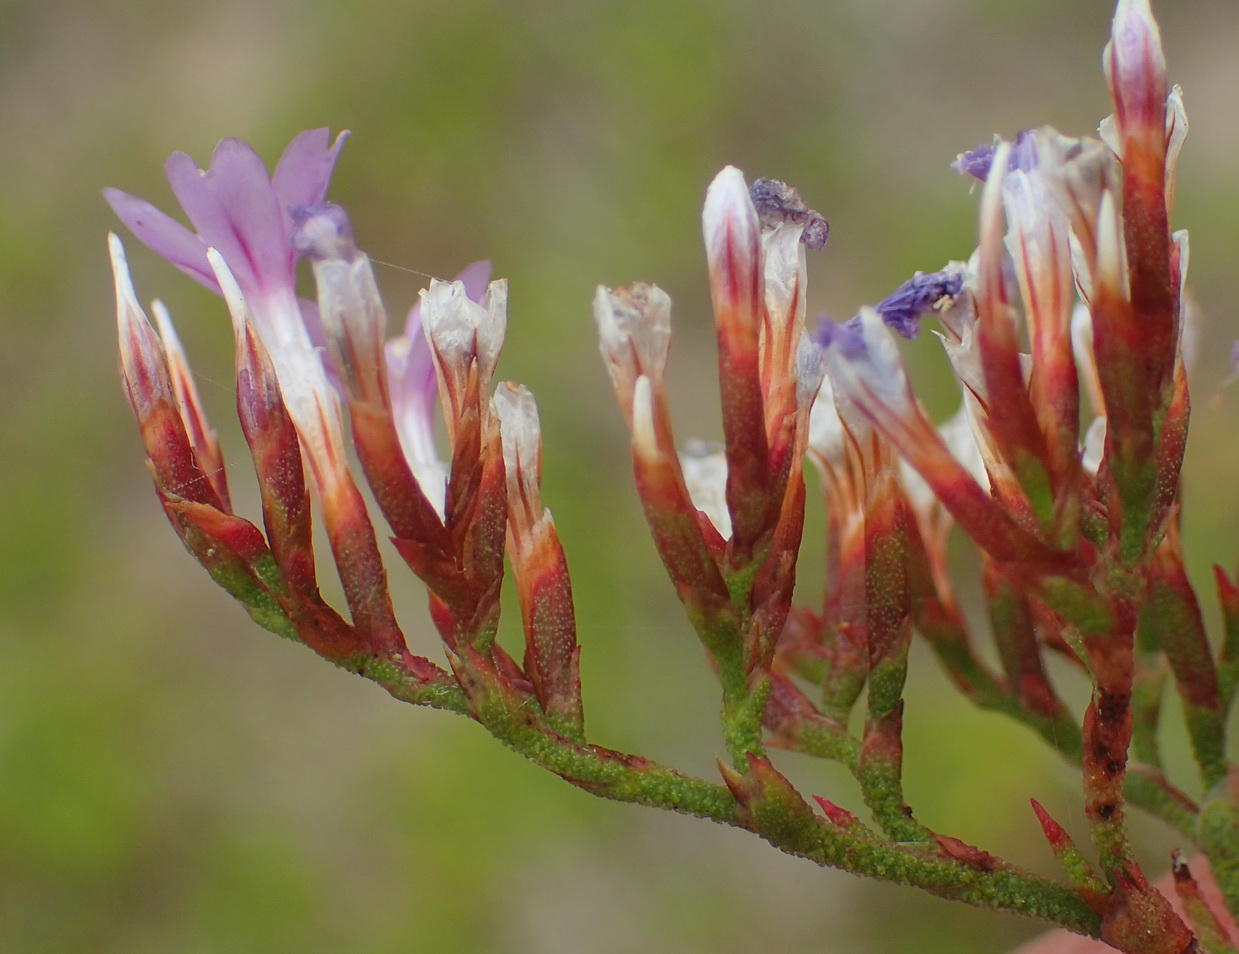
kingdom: Plantae
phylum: Tracheophyta
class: Magnoliopsida
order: Caryophyllales
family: Plumbaginaceae
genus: Limonium
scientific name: Limonium scabrum
